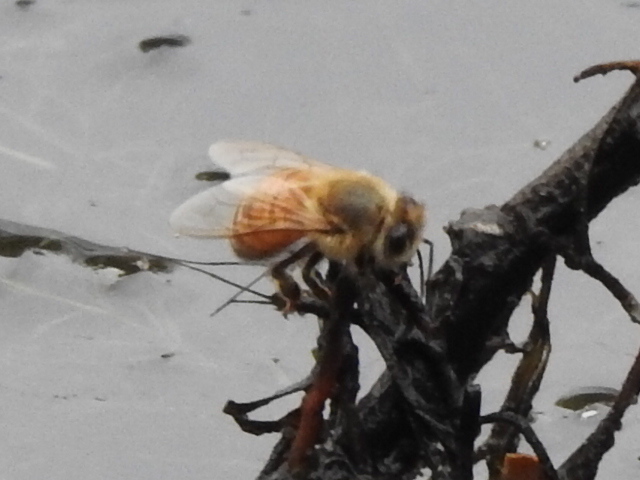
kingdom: Animalia
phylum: Arthropoda
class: Insecta
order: Hymenoptera
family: Apidae
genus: Apis
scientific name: Apis mellifera
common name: Honey bee
